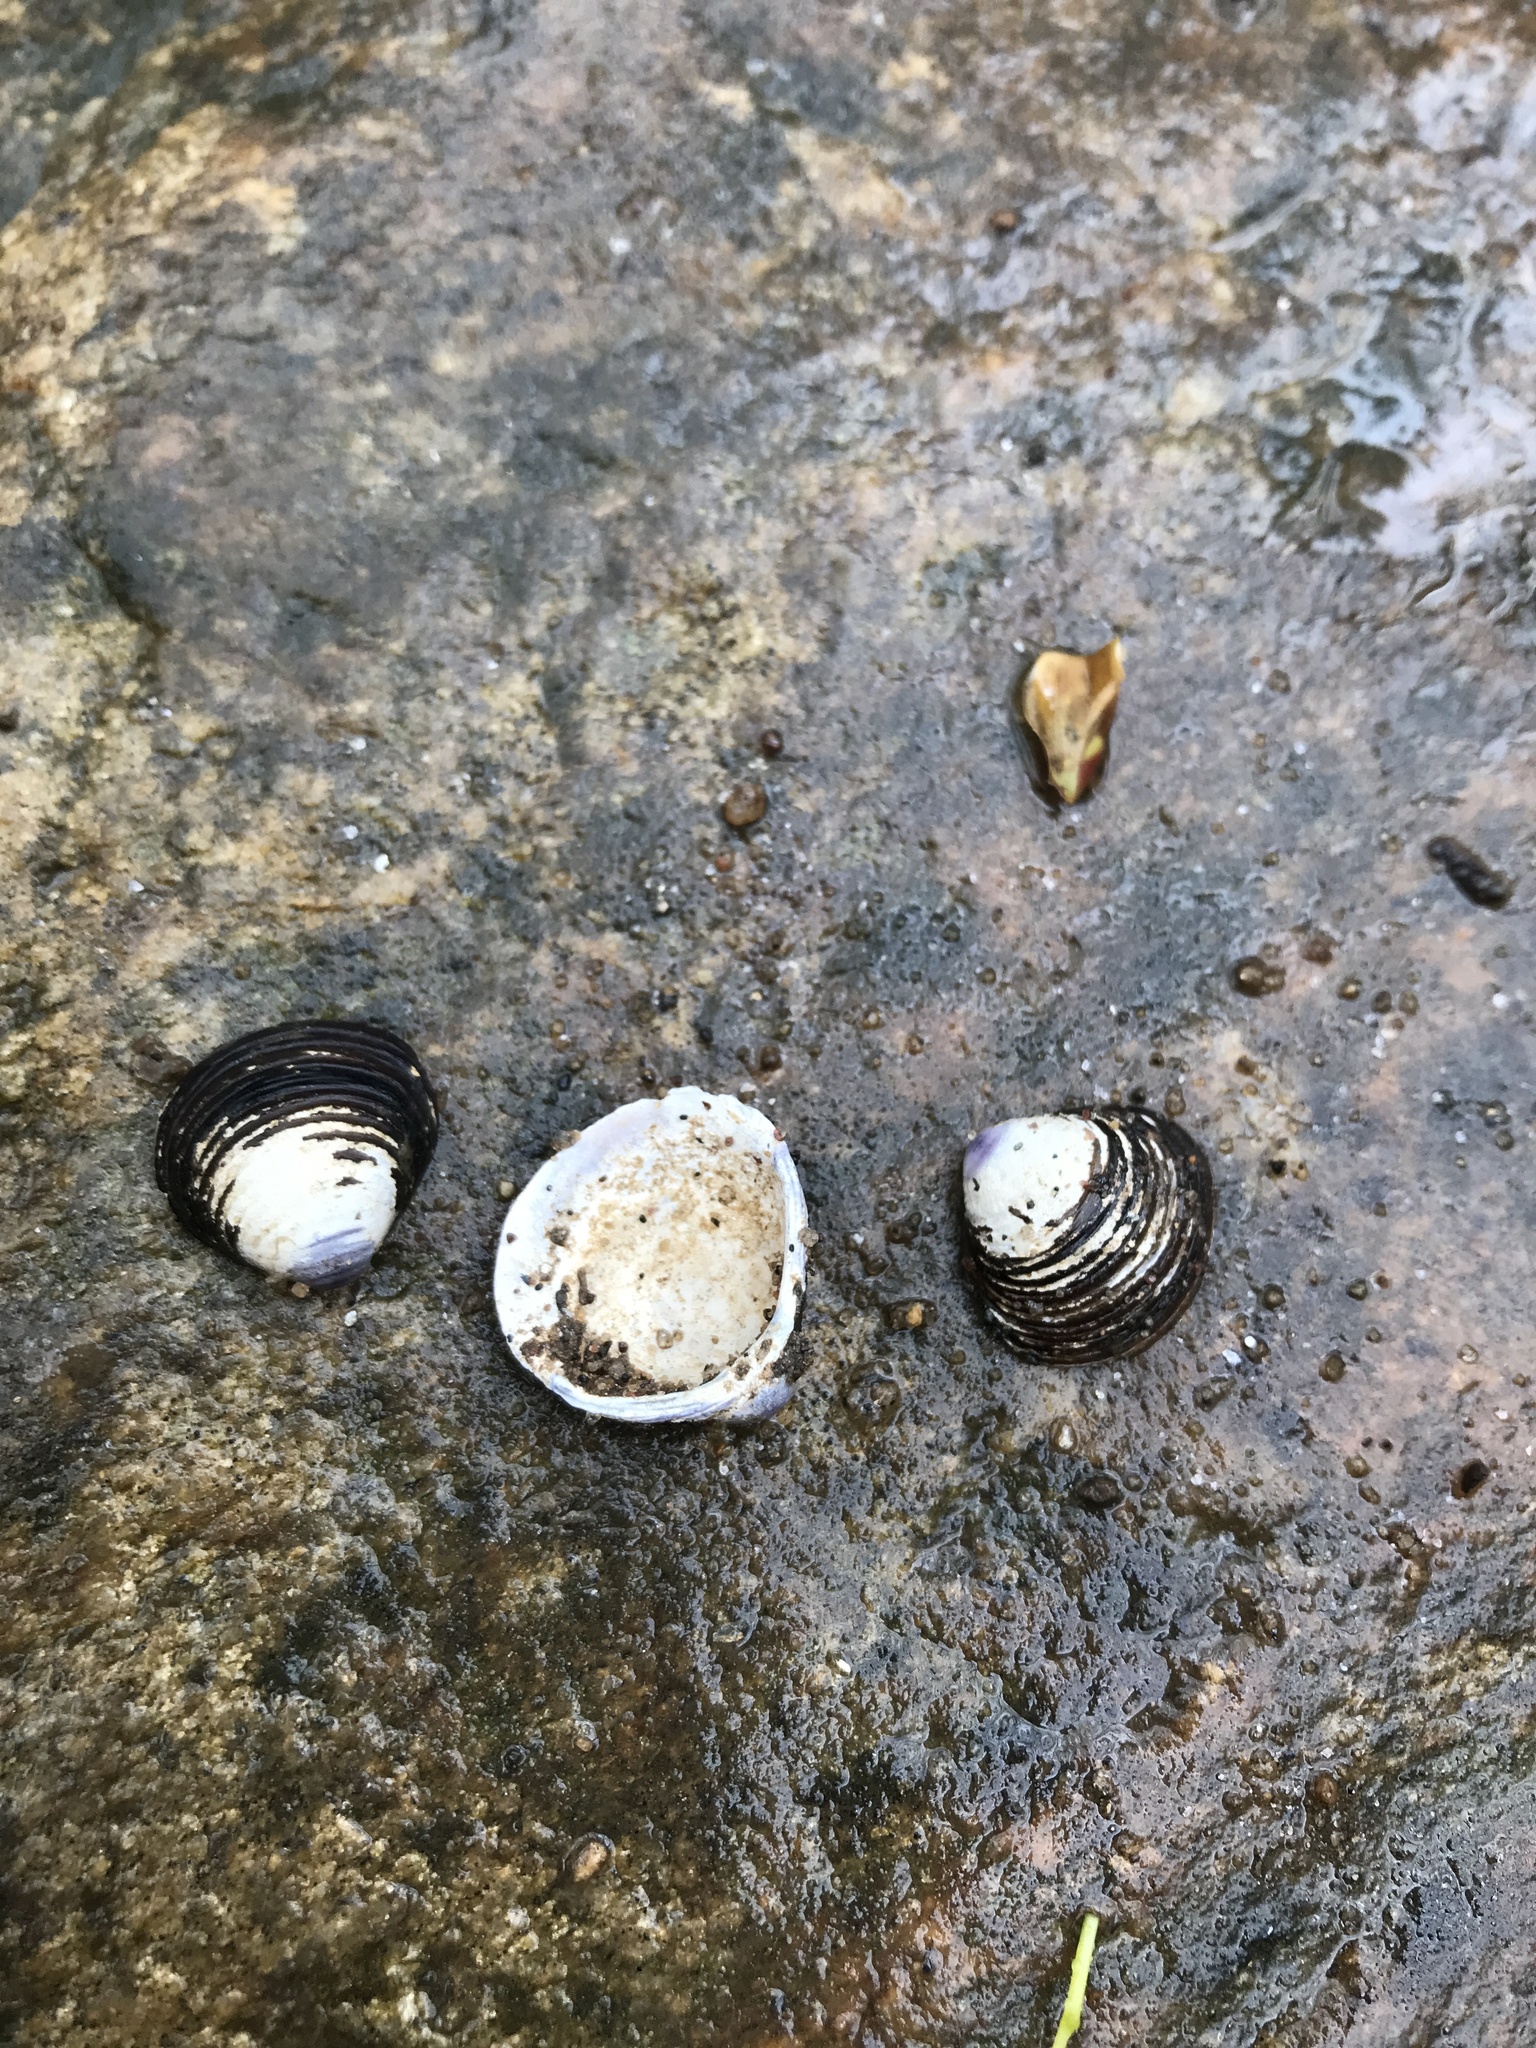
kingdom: Animalia
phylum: Mollusca
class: Bivalvia
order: Venerida
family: Cyrenidae
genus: Corbicula
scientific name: Corbicula fluminea
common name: Asian clam
